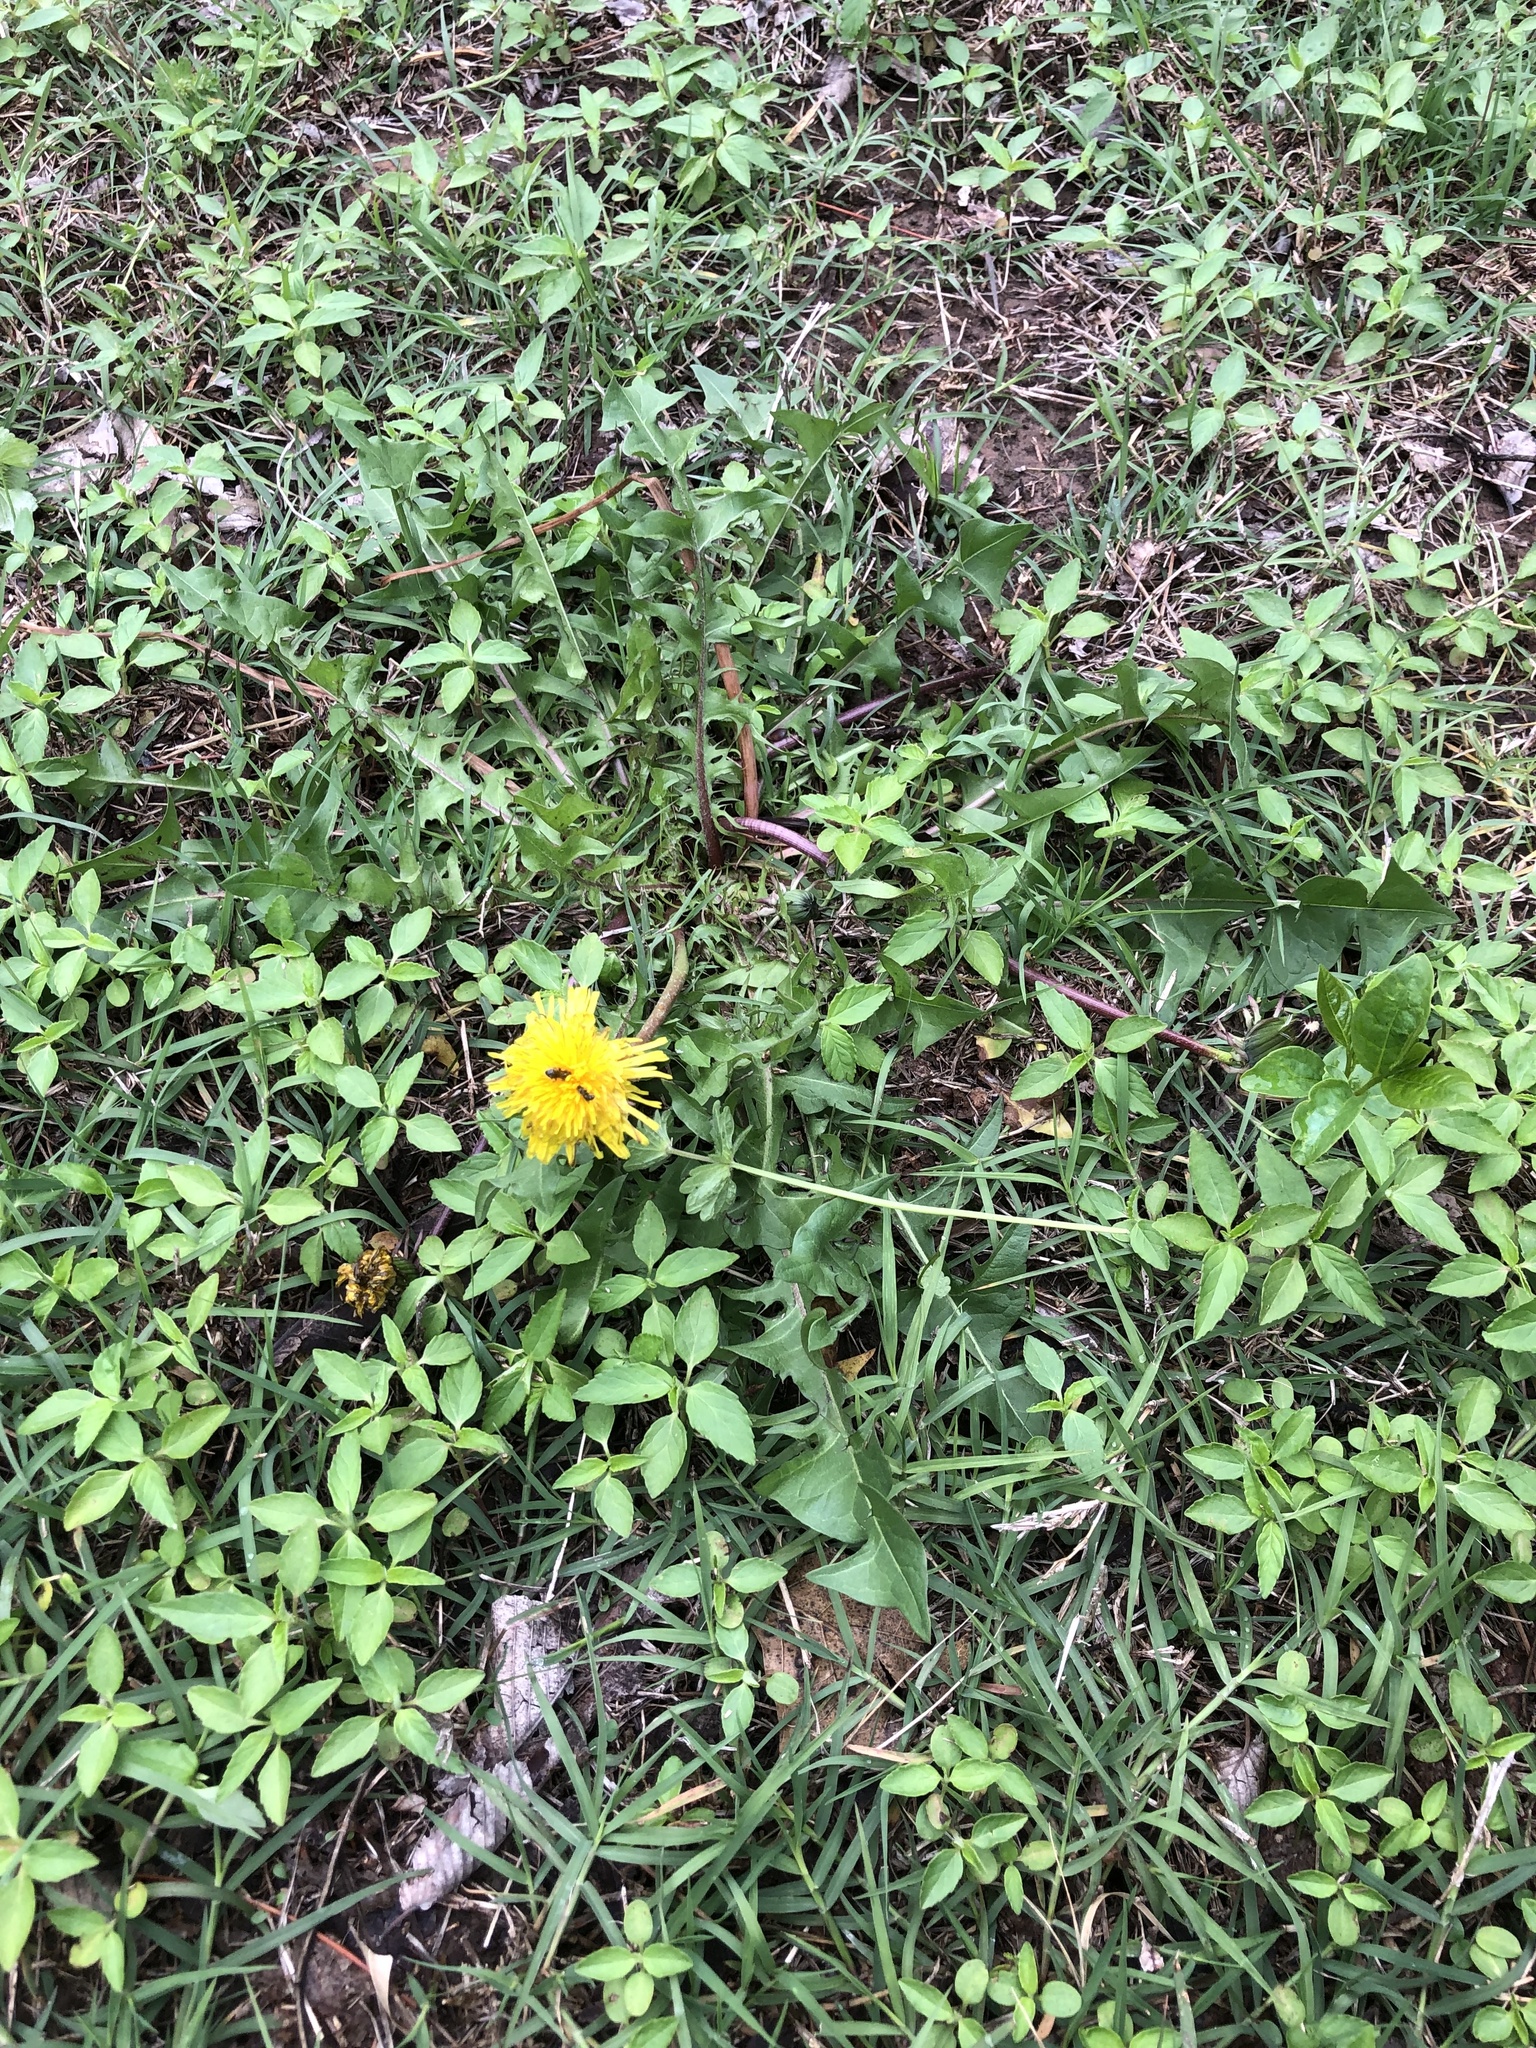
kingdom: Plantae
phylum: Tracheophyta
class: Magnoliopsida
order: Asterales
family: Asteraceae
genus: Taraxacum
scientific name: Taraxacum
